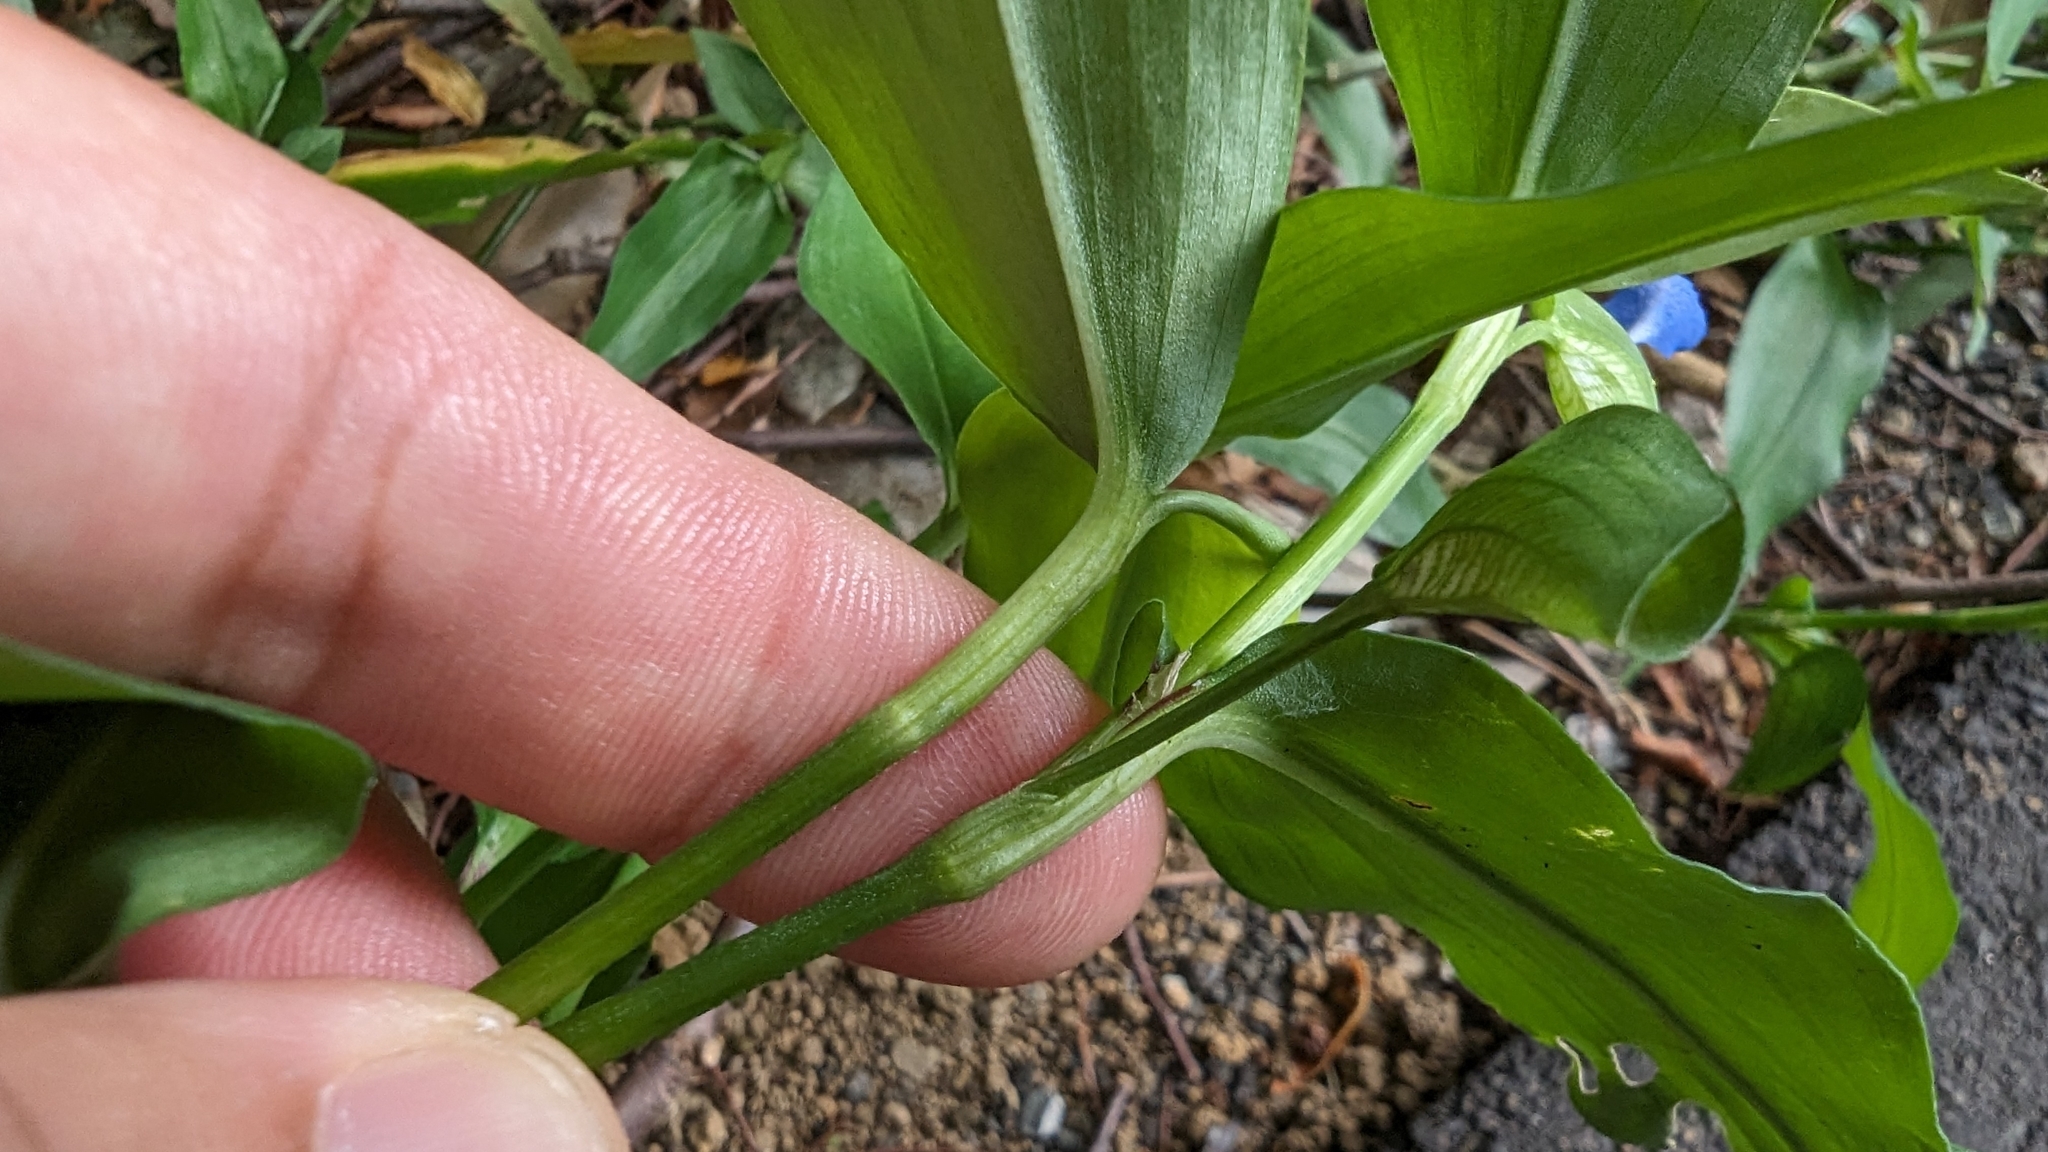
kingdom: Plantae
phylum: Tracheophyta
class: Liliopsida
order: Commelinales
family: Commelinaceae
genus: Commelina
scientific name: Commelina communis
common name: Asiatic dayflower
